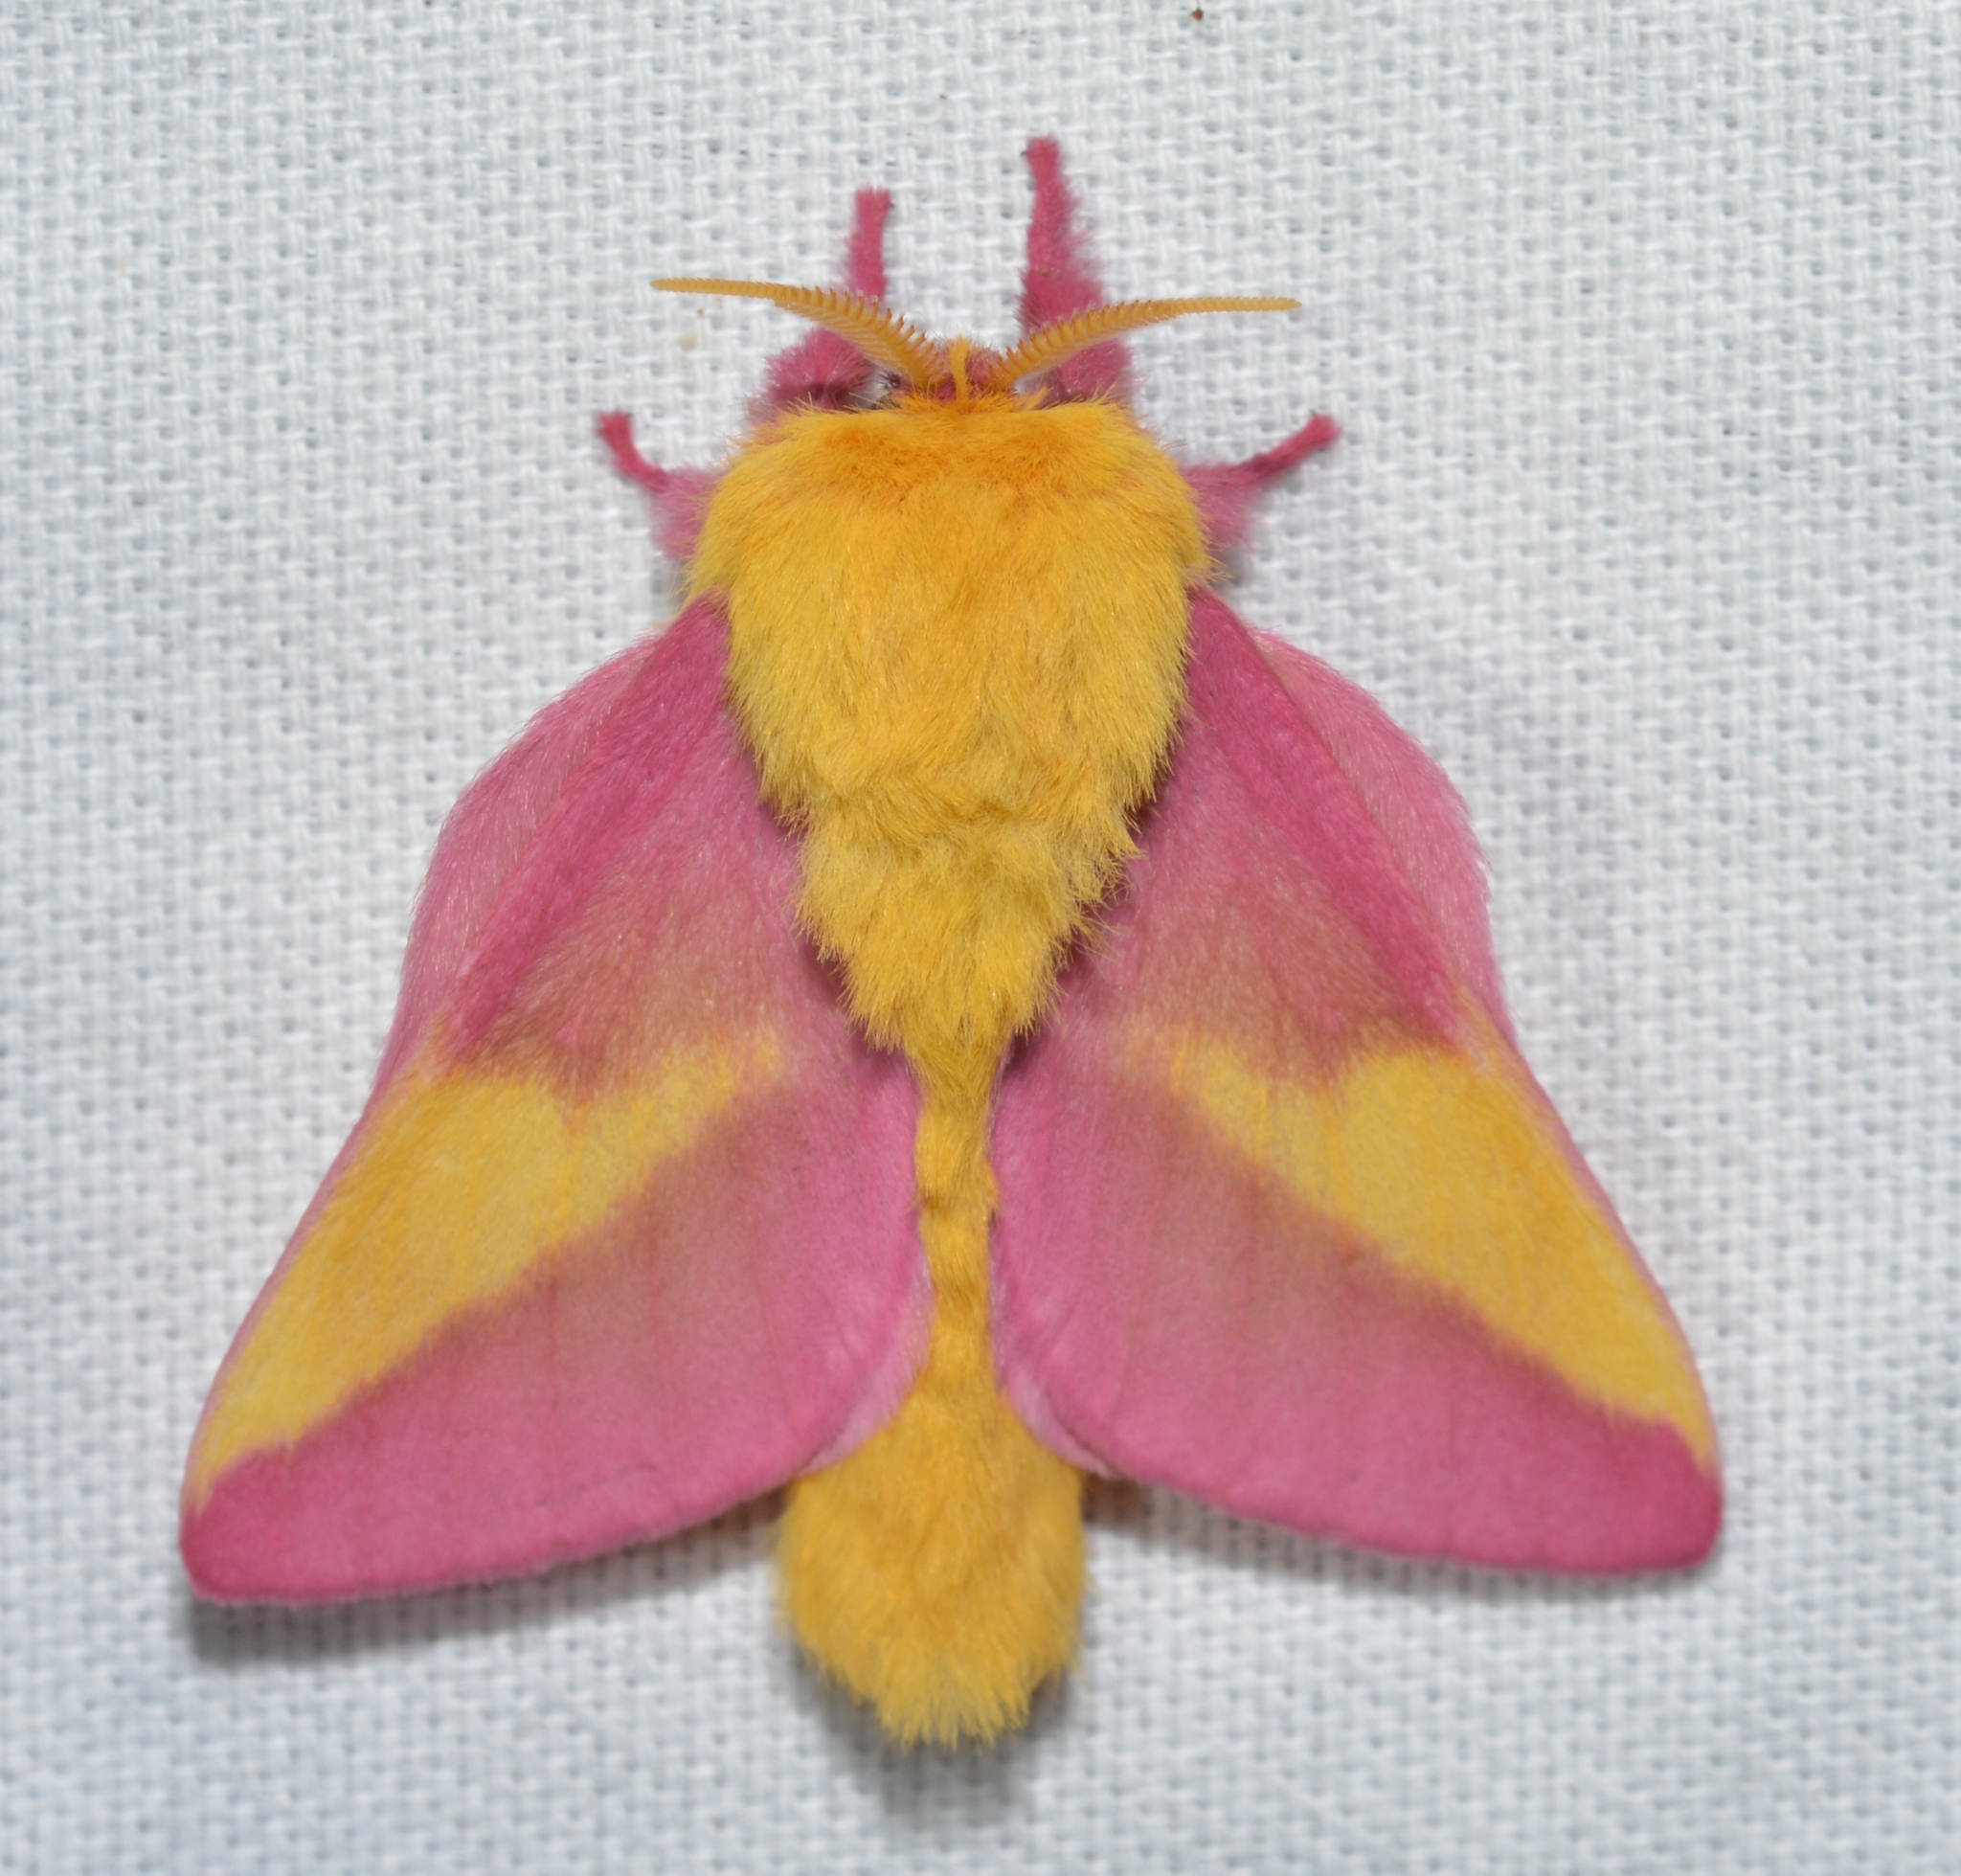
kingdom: Animalia
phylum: Arthropoda
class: Insecta
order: Lepidoptera
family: Saturniidae
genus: Dryocampa
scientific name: Dryocampa rubicunda
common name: Rosy maple moth
